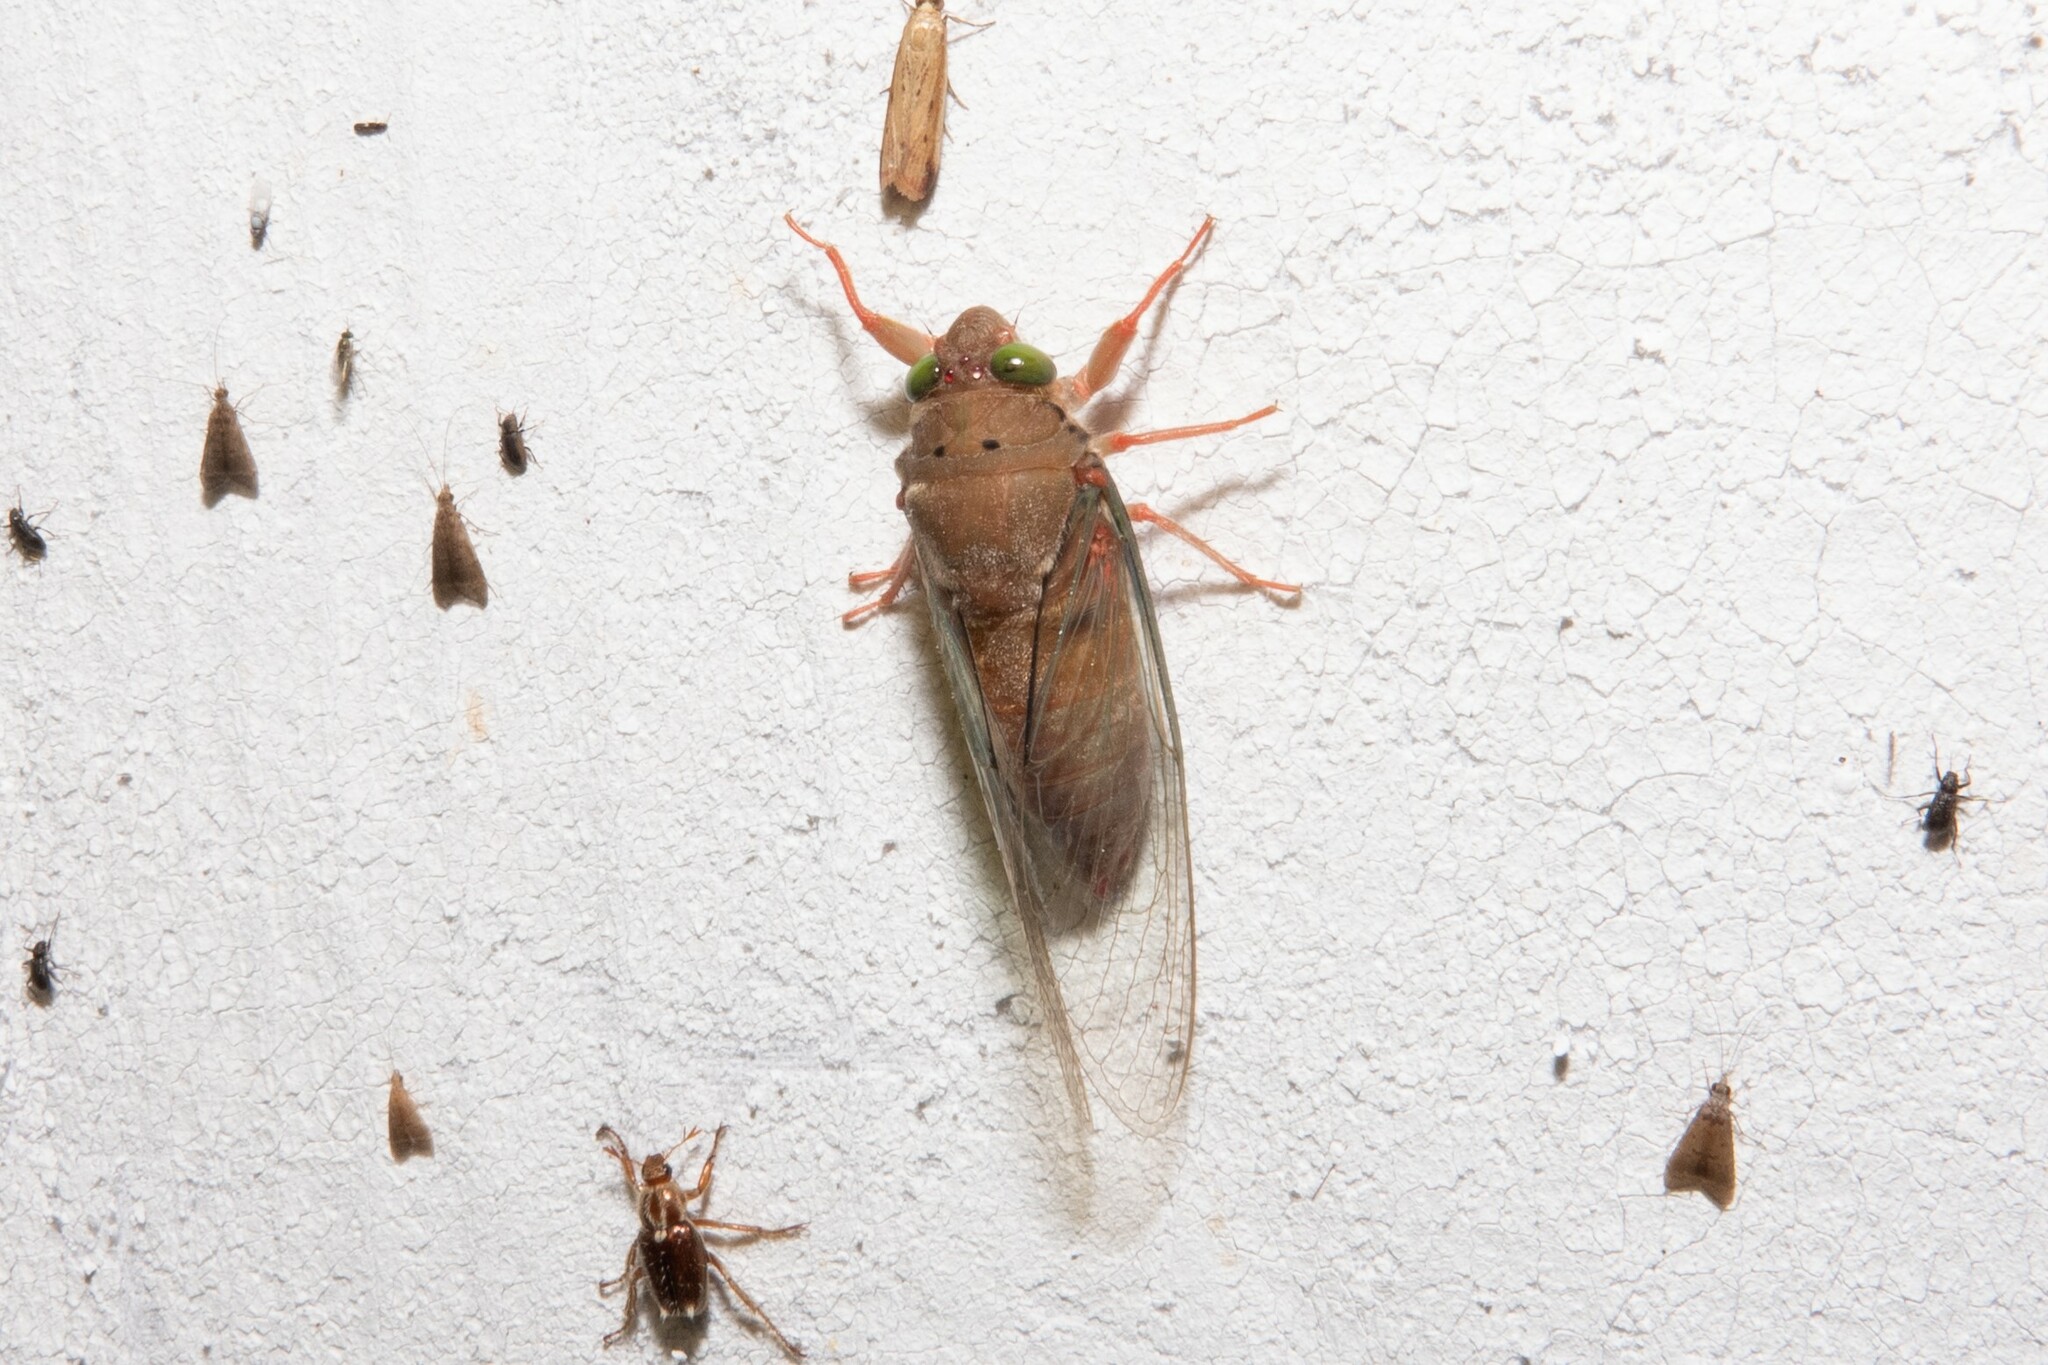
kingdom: Animalia
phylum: Arthropoda
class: Insecta
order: Hemiptera
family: Cicadidae
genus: Carineta
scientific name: Carineta rufescens
